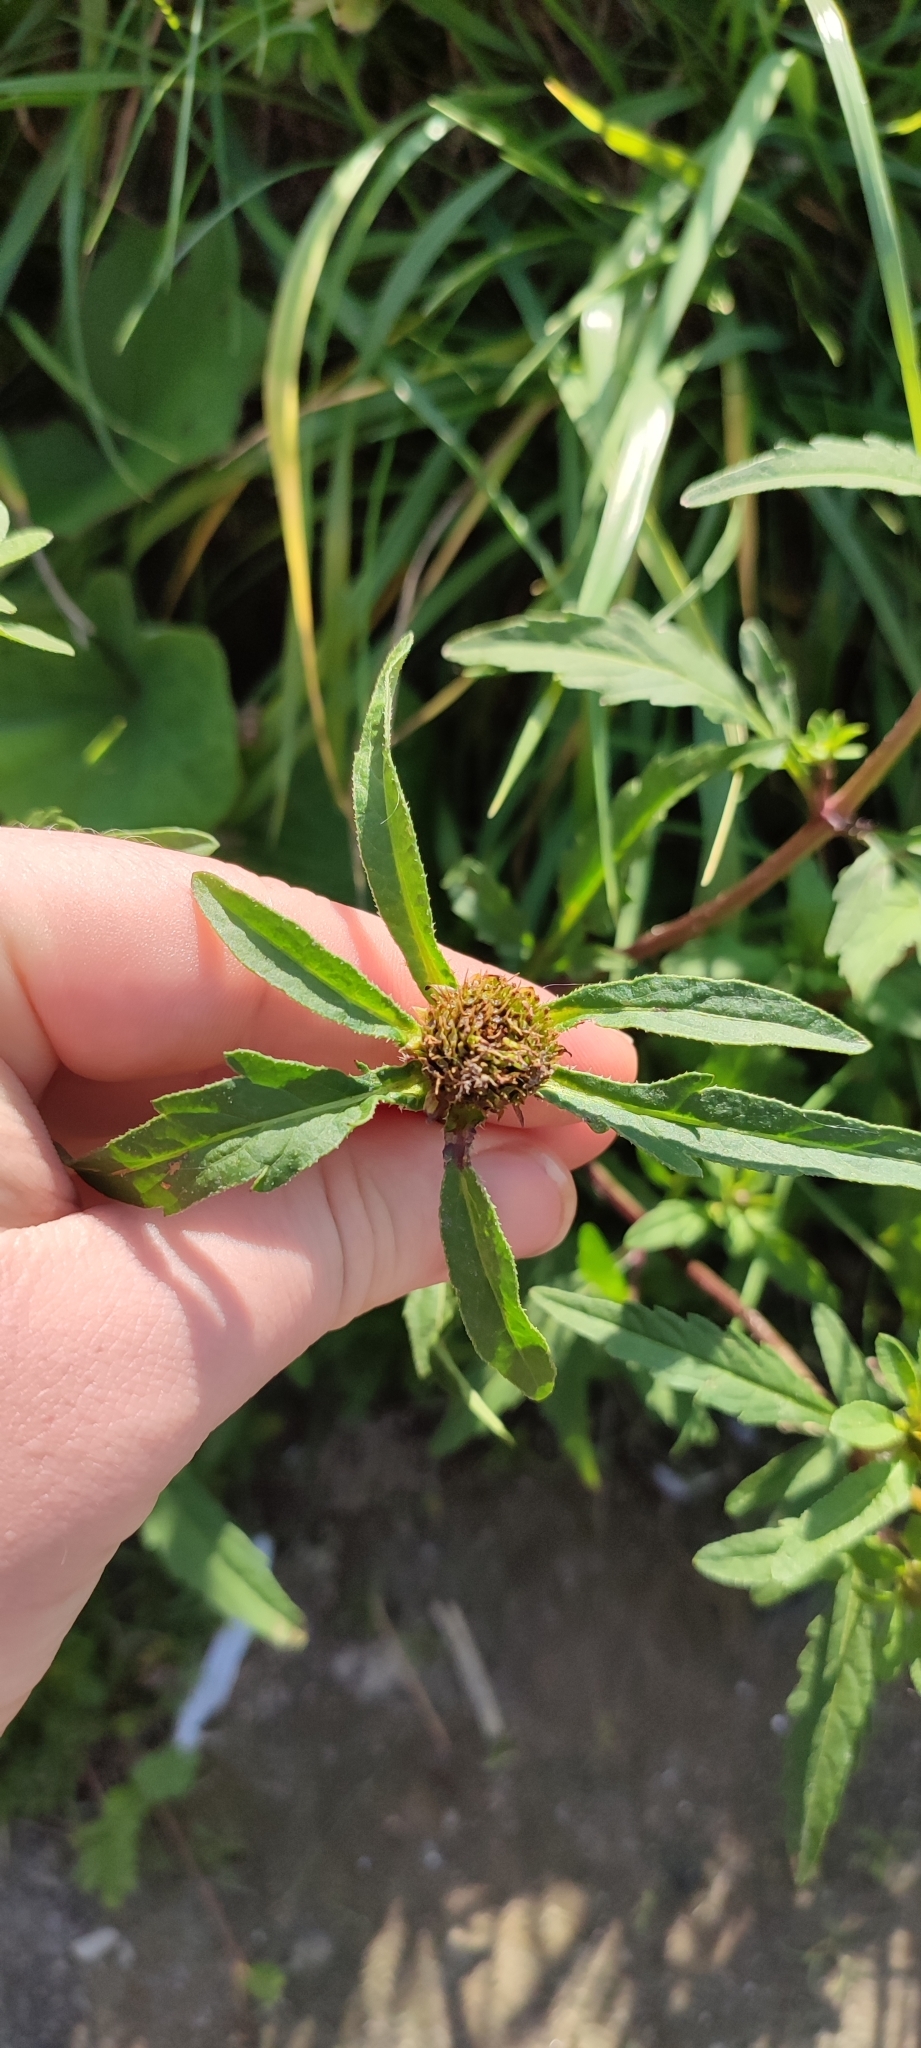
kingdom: Plantae
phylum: Tracheophyta
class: Magnoliopsida
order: Asterales
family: Asteraceae
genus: Bidens
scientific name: Bidens tripartita
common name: Trifid bur-marigold
